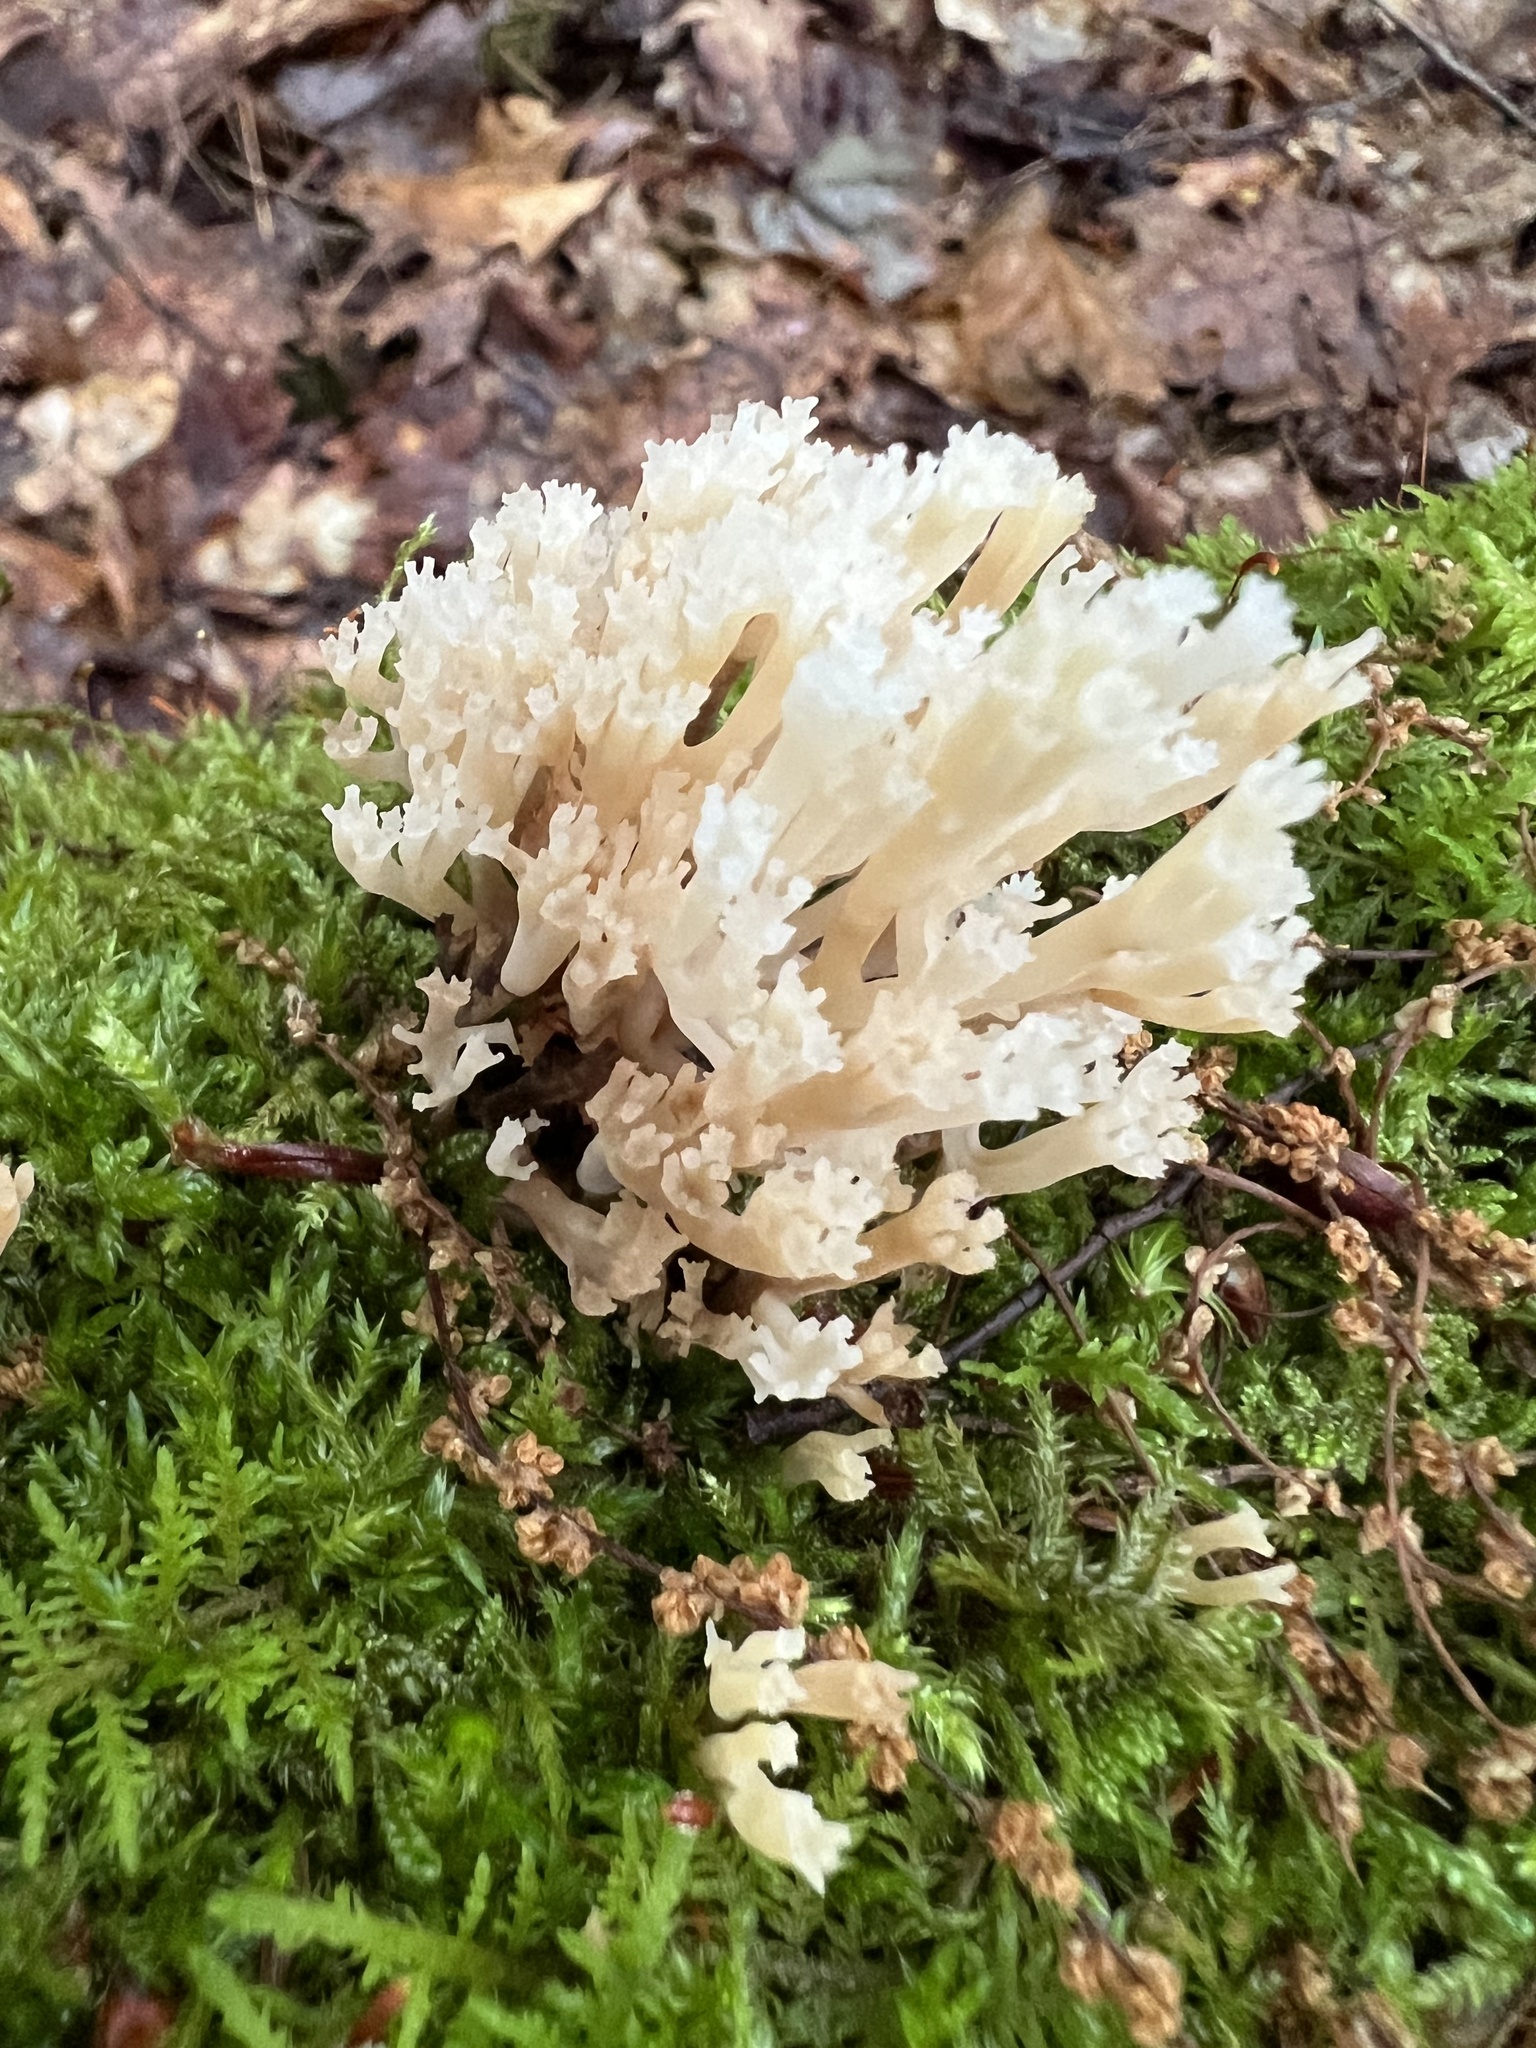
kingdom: Fungi
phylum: Basidiomycota
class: Agaricomycetes
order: Russulales
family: Auriscalpiaceae
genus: Artomyces
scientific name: Artomyces pyxidatus
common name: Crown-tipped coral fungus
